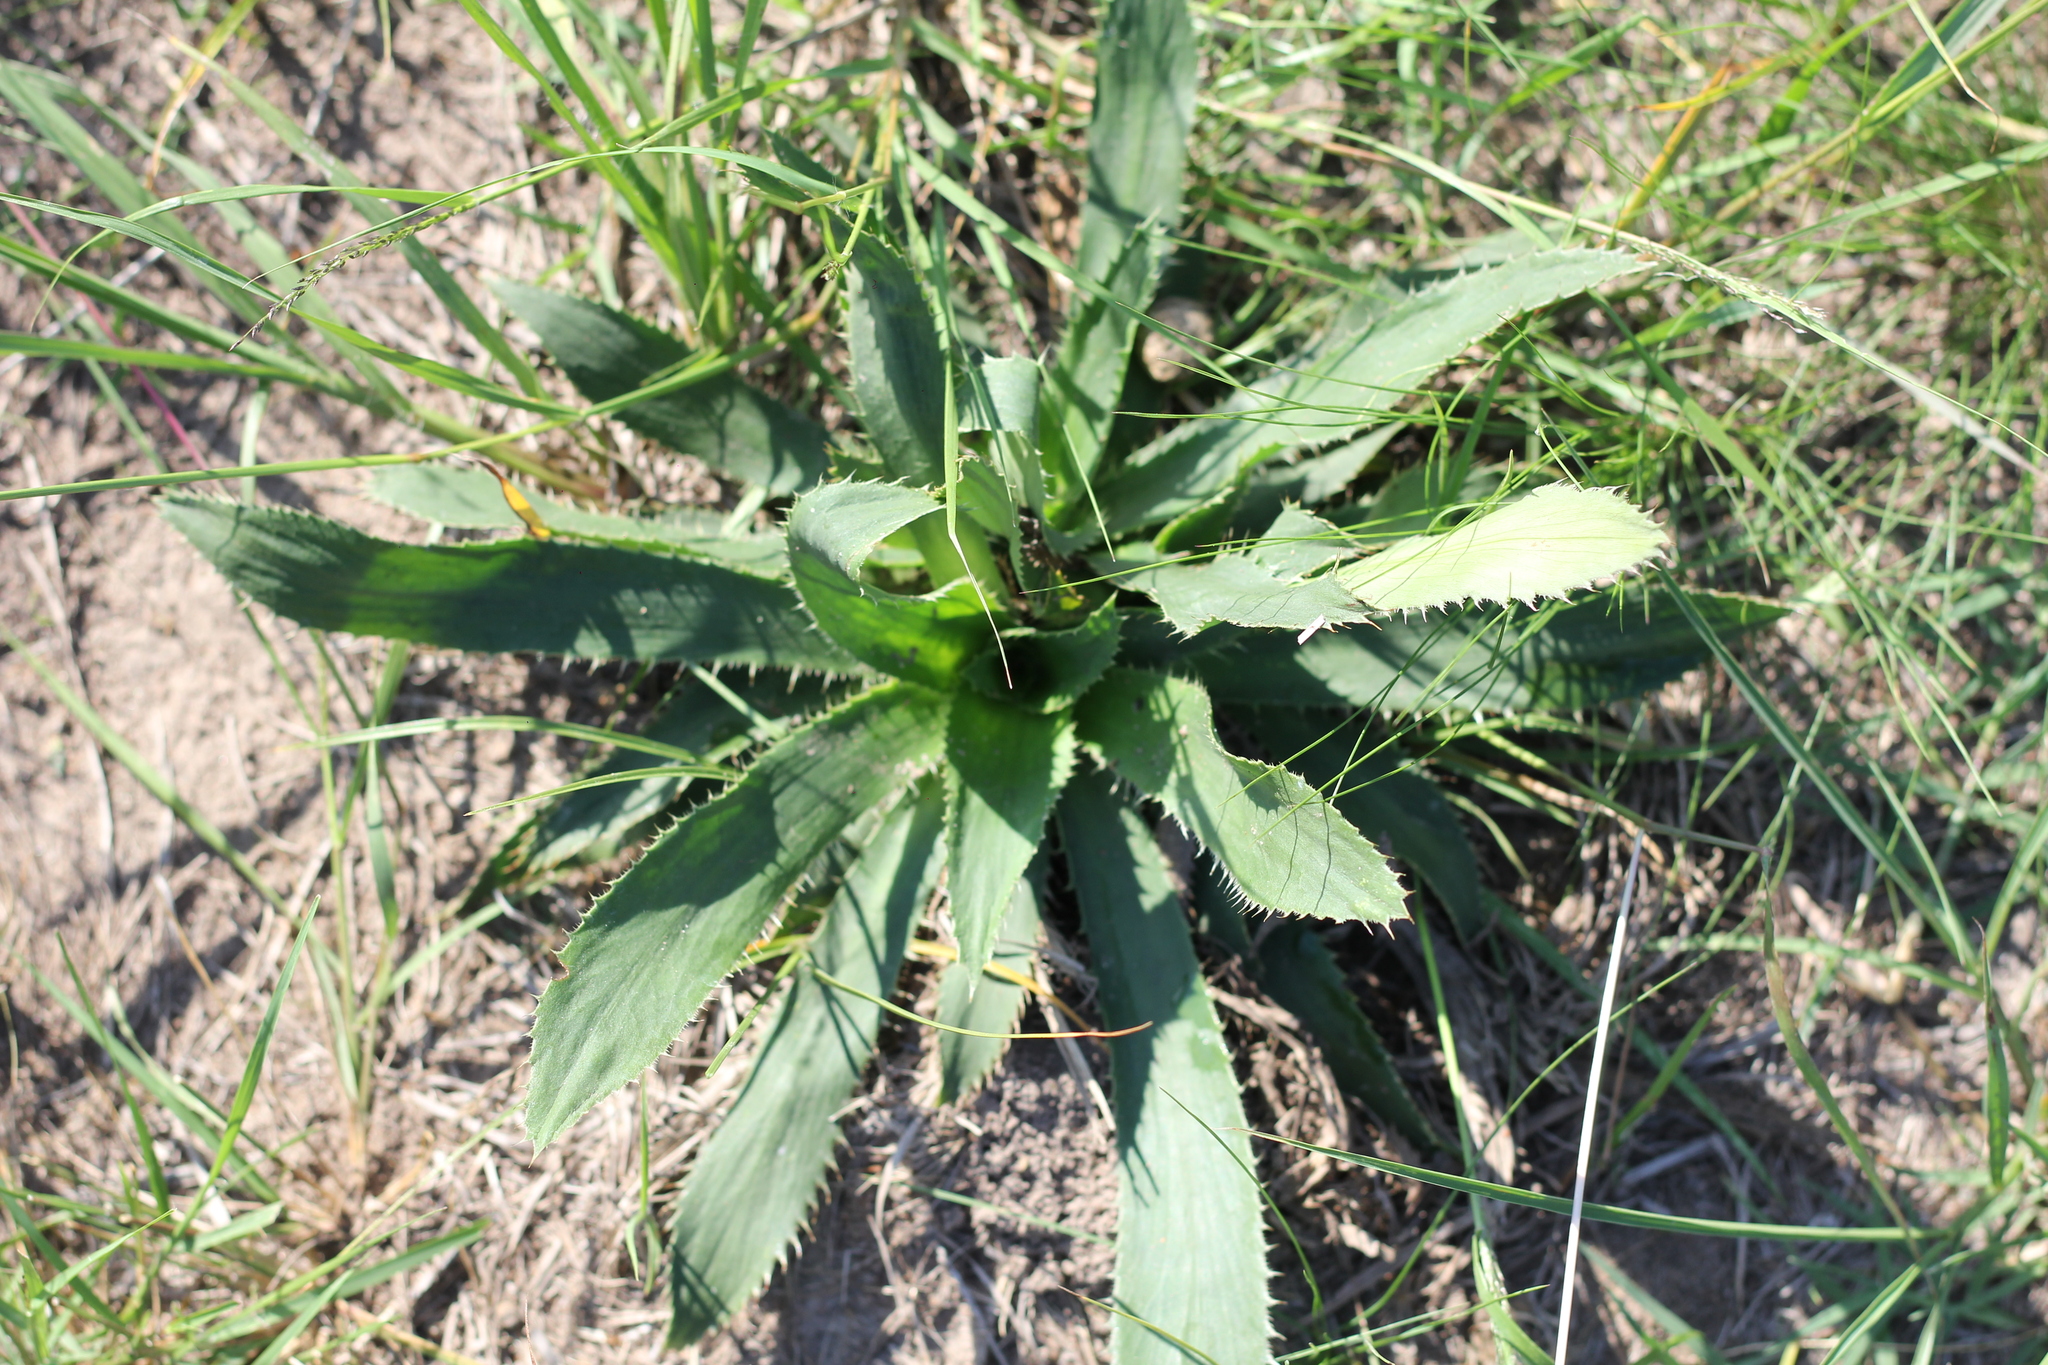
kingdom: Plantae
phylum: Tracheophyta
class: Magnoliopsida
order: Apiales
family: Apiaceae
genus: Eryngium
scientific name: Eryngium elegans
